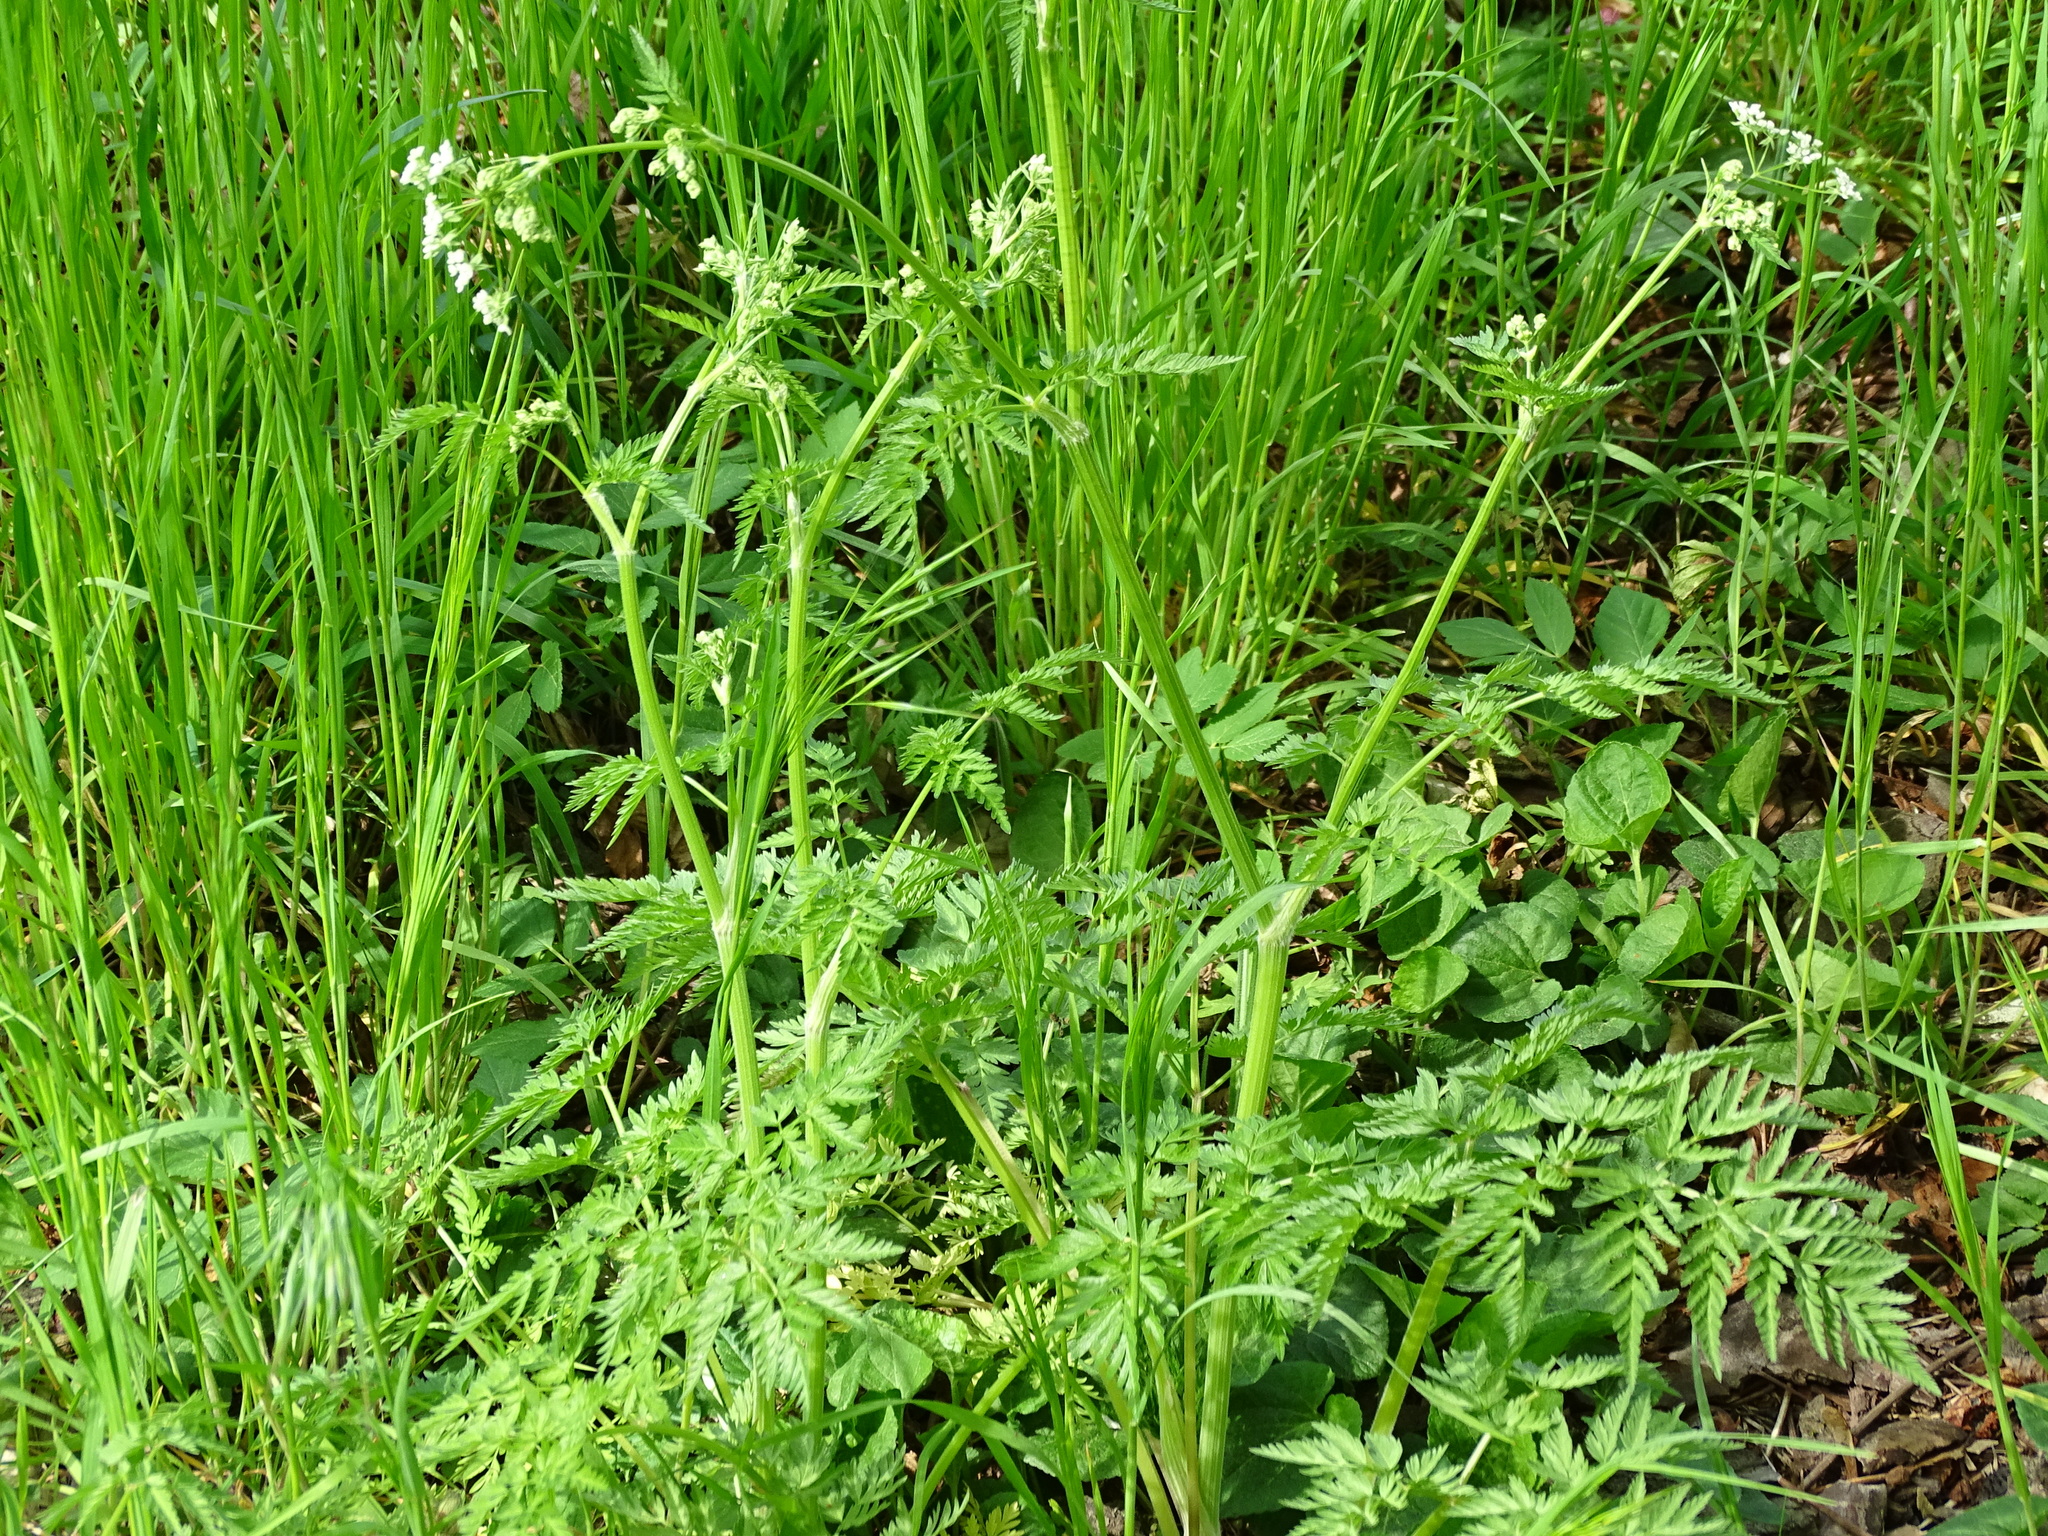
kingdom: Plantae
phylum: Tracheophyta
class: Magnoliopsida
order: Apiales
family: Apiaceae
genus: Anthriscus
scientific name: Anthriscus sylvestris
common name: Cow parsley
